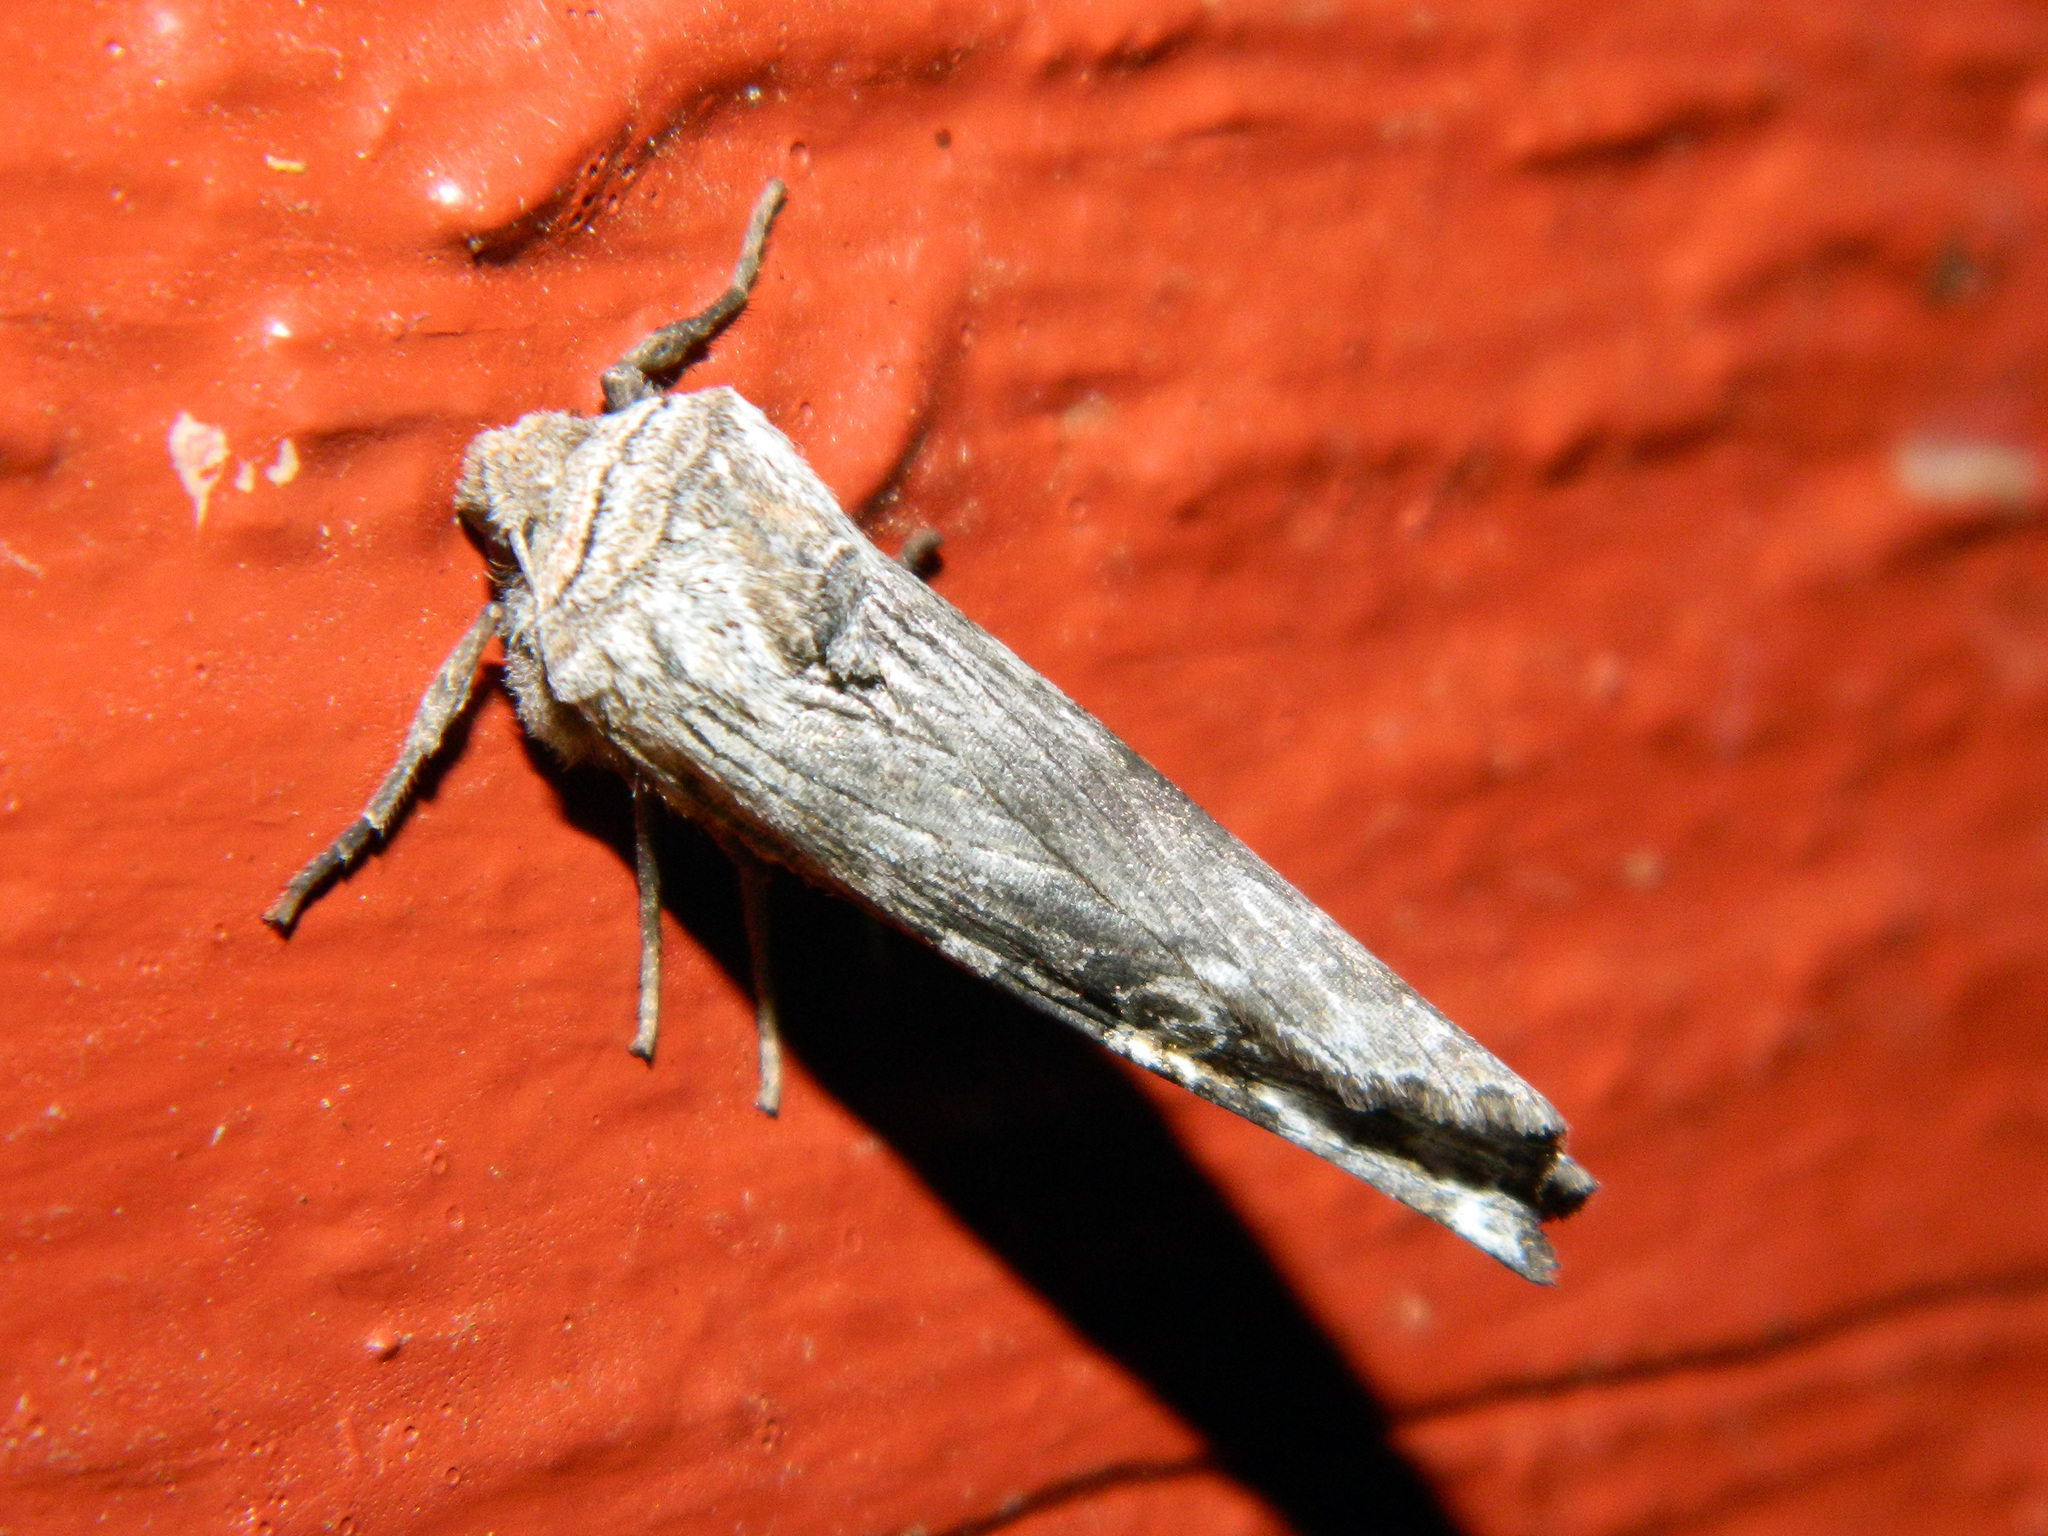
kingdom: Animalia
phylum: Arthropoda
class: Insecta
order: Lepidoptera
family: Noctuidae
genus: Xylena
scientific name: Xylena germana
